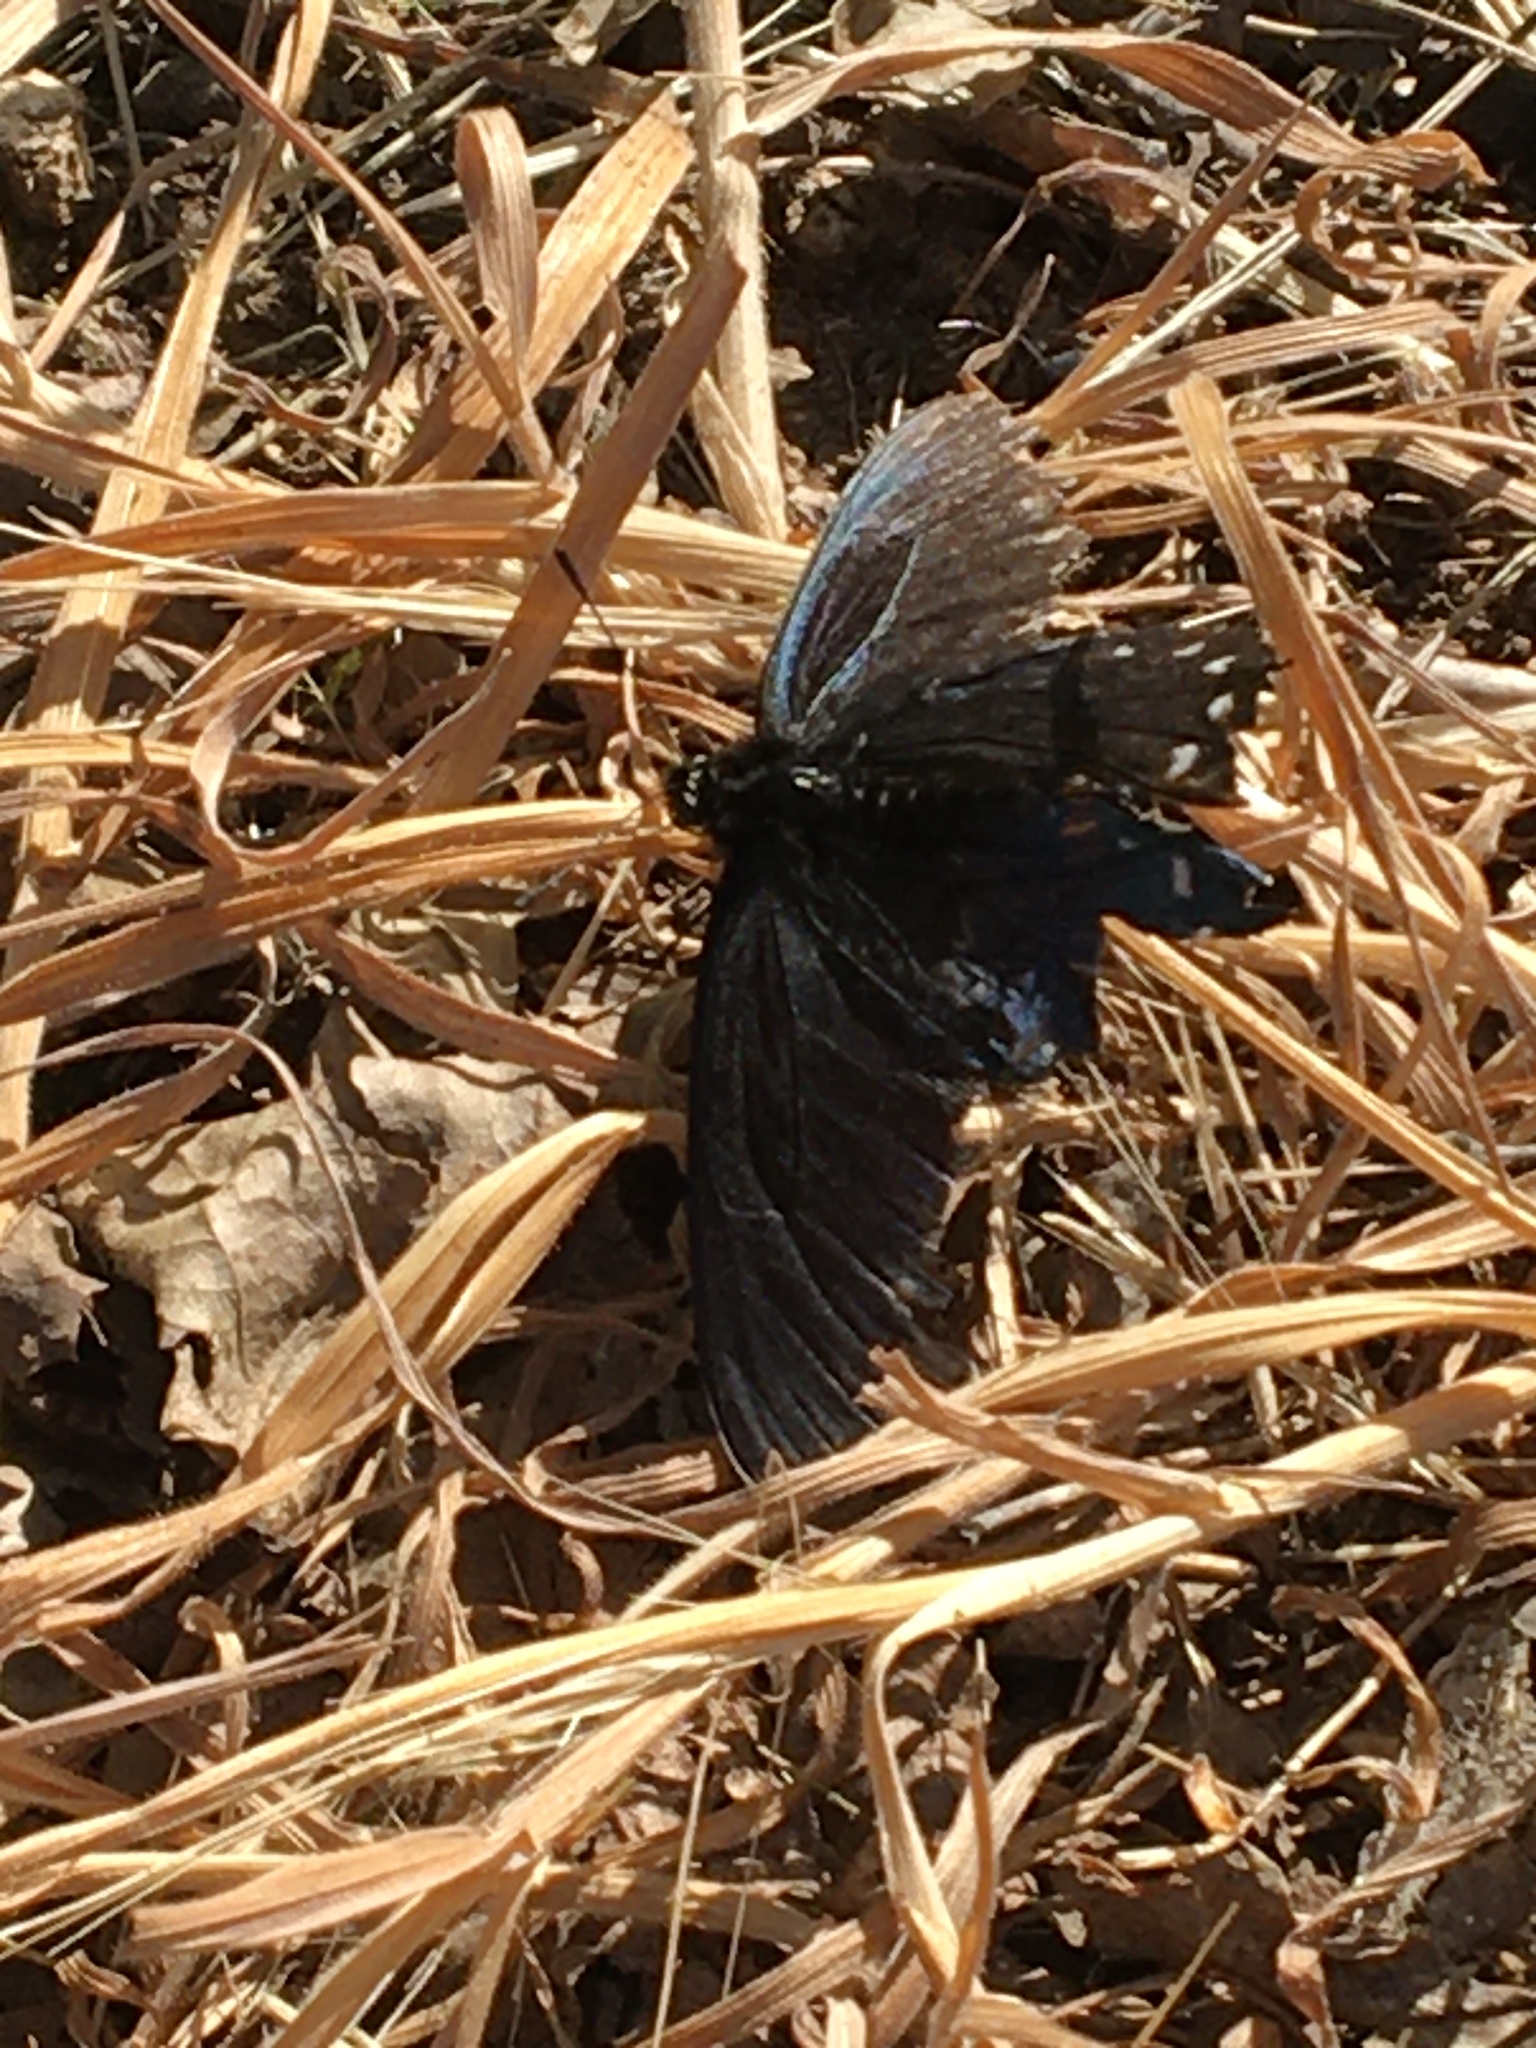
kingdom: Animalia
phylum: Arthropoda
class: Insecta
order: Lepidoptera
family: Papilionidae
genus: Battus
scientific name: Battus philenor
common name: Pipevine swallowtail
